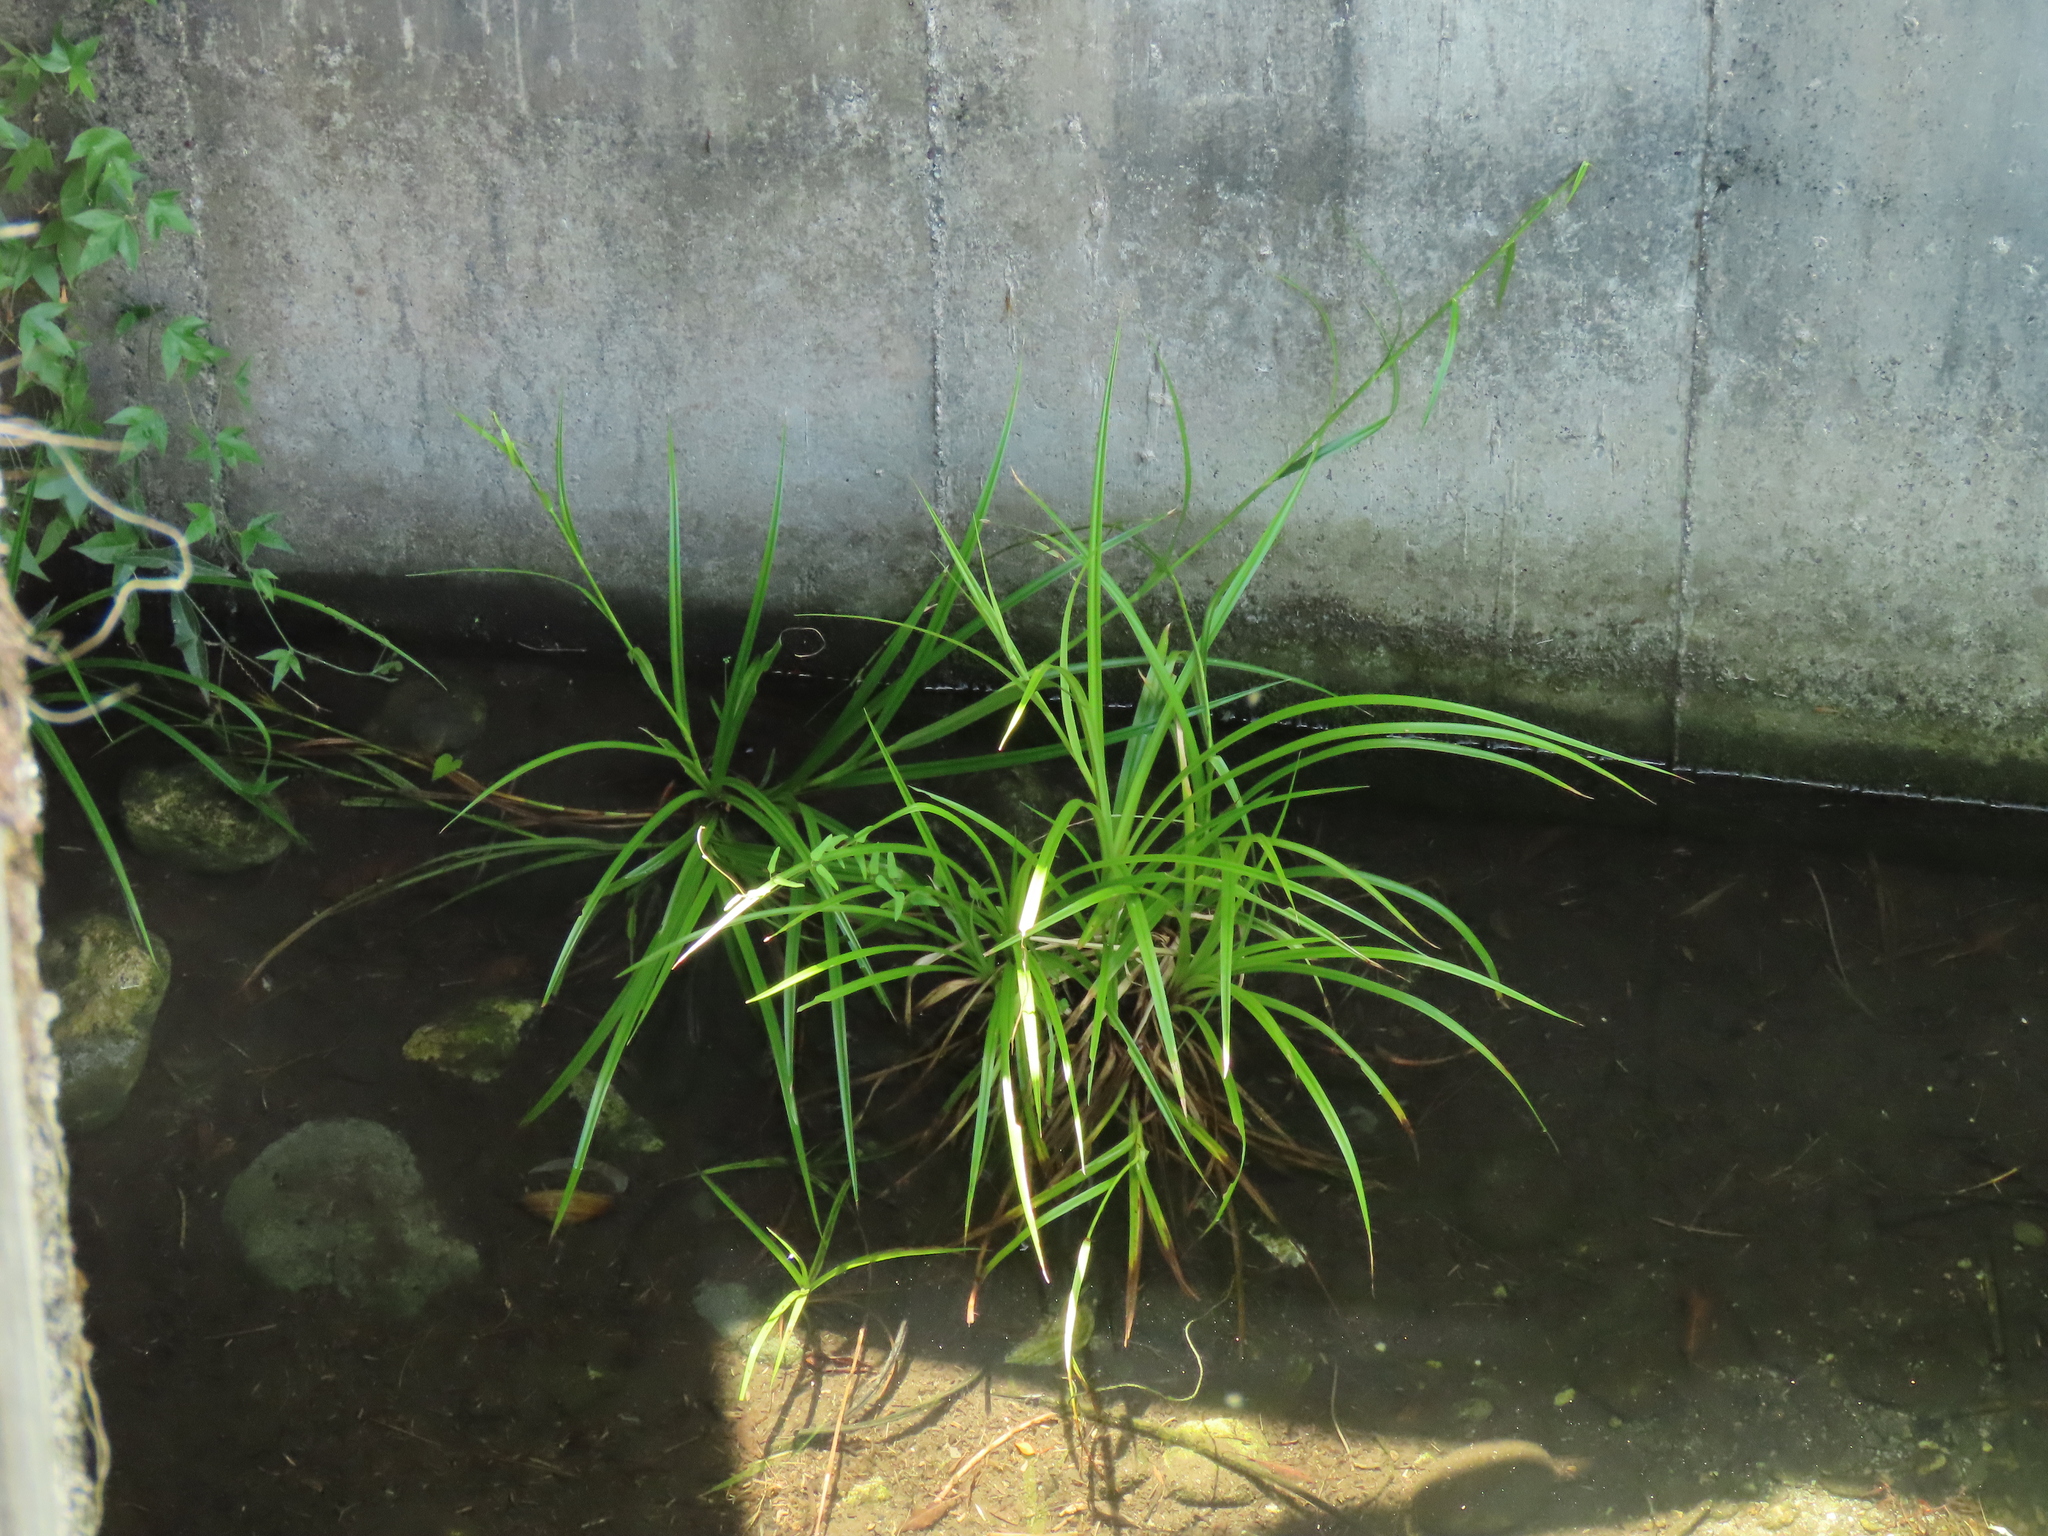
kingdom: Plantae
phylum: Tracheophyta
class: Liliopsida
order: Poales
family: Cyperaceae
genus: Scirpus
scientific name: Scirpus ternatanus
